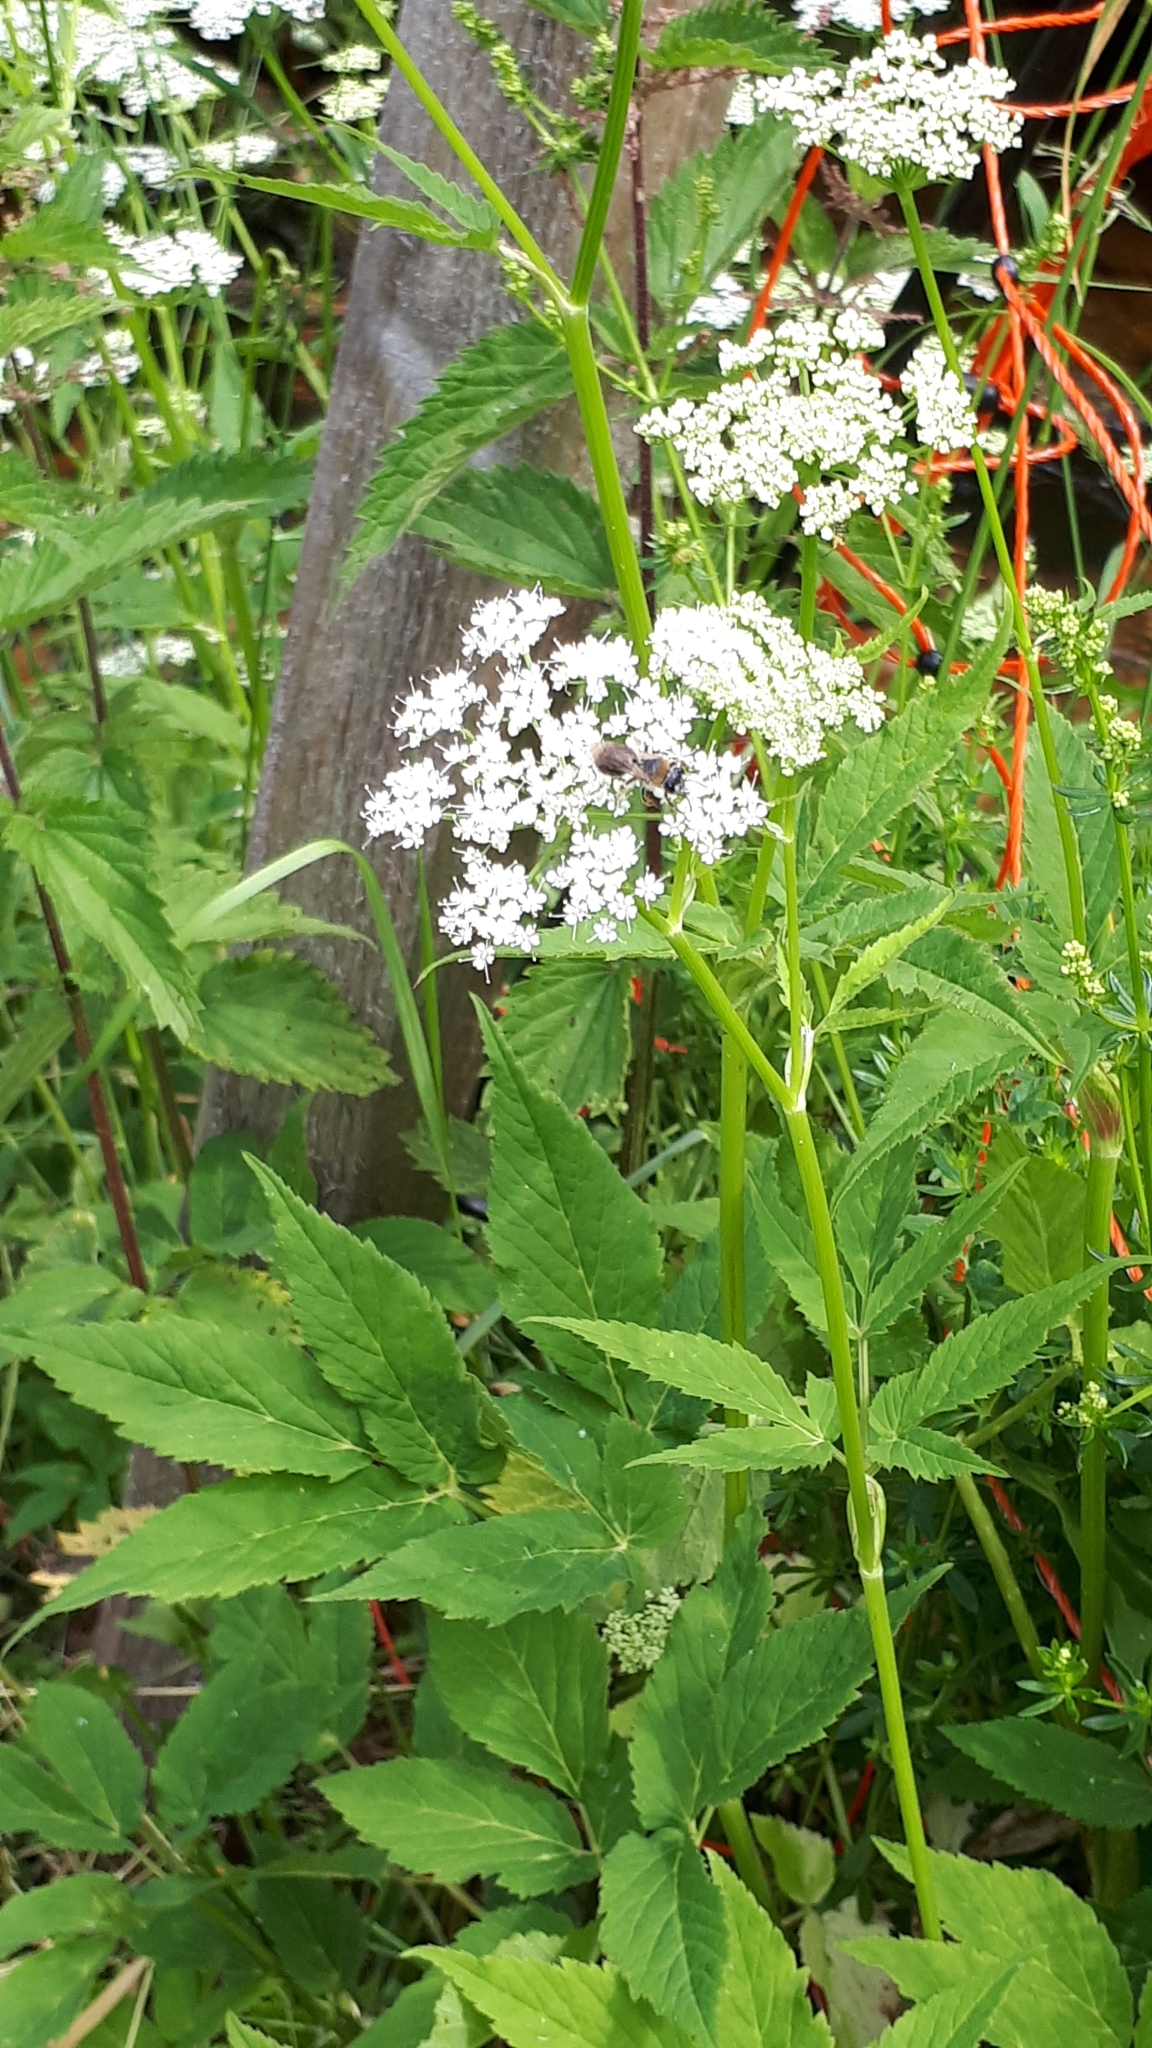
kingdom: Plantae
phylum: Tracheophyta
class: Magnoliopsida
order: Apiales
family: Apiaceae
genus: Aegopodium
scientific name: Aegopodium podagraria
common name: Ground-elder
